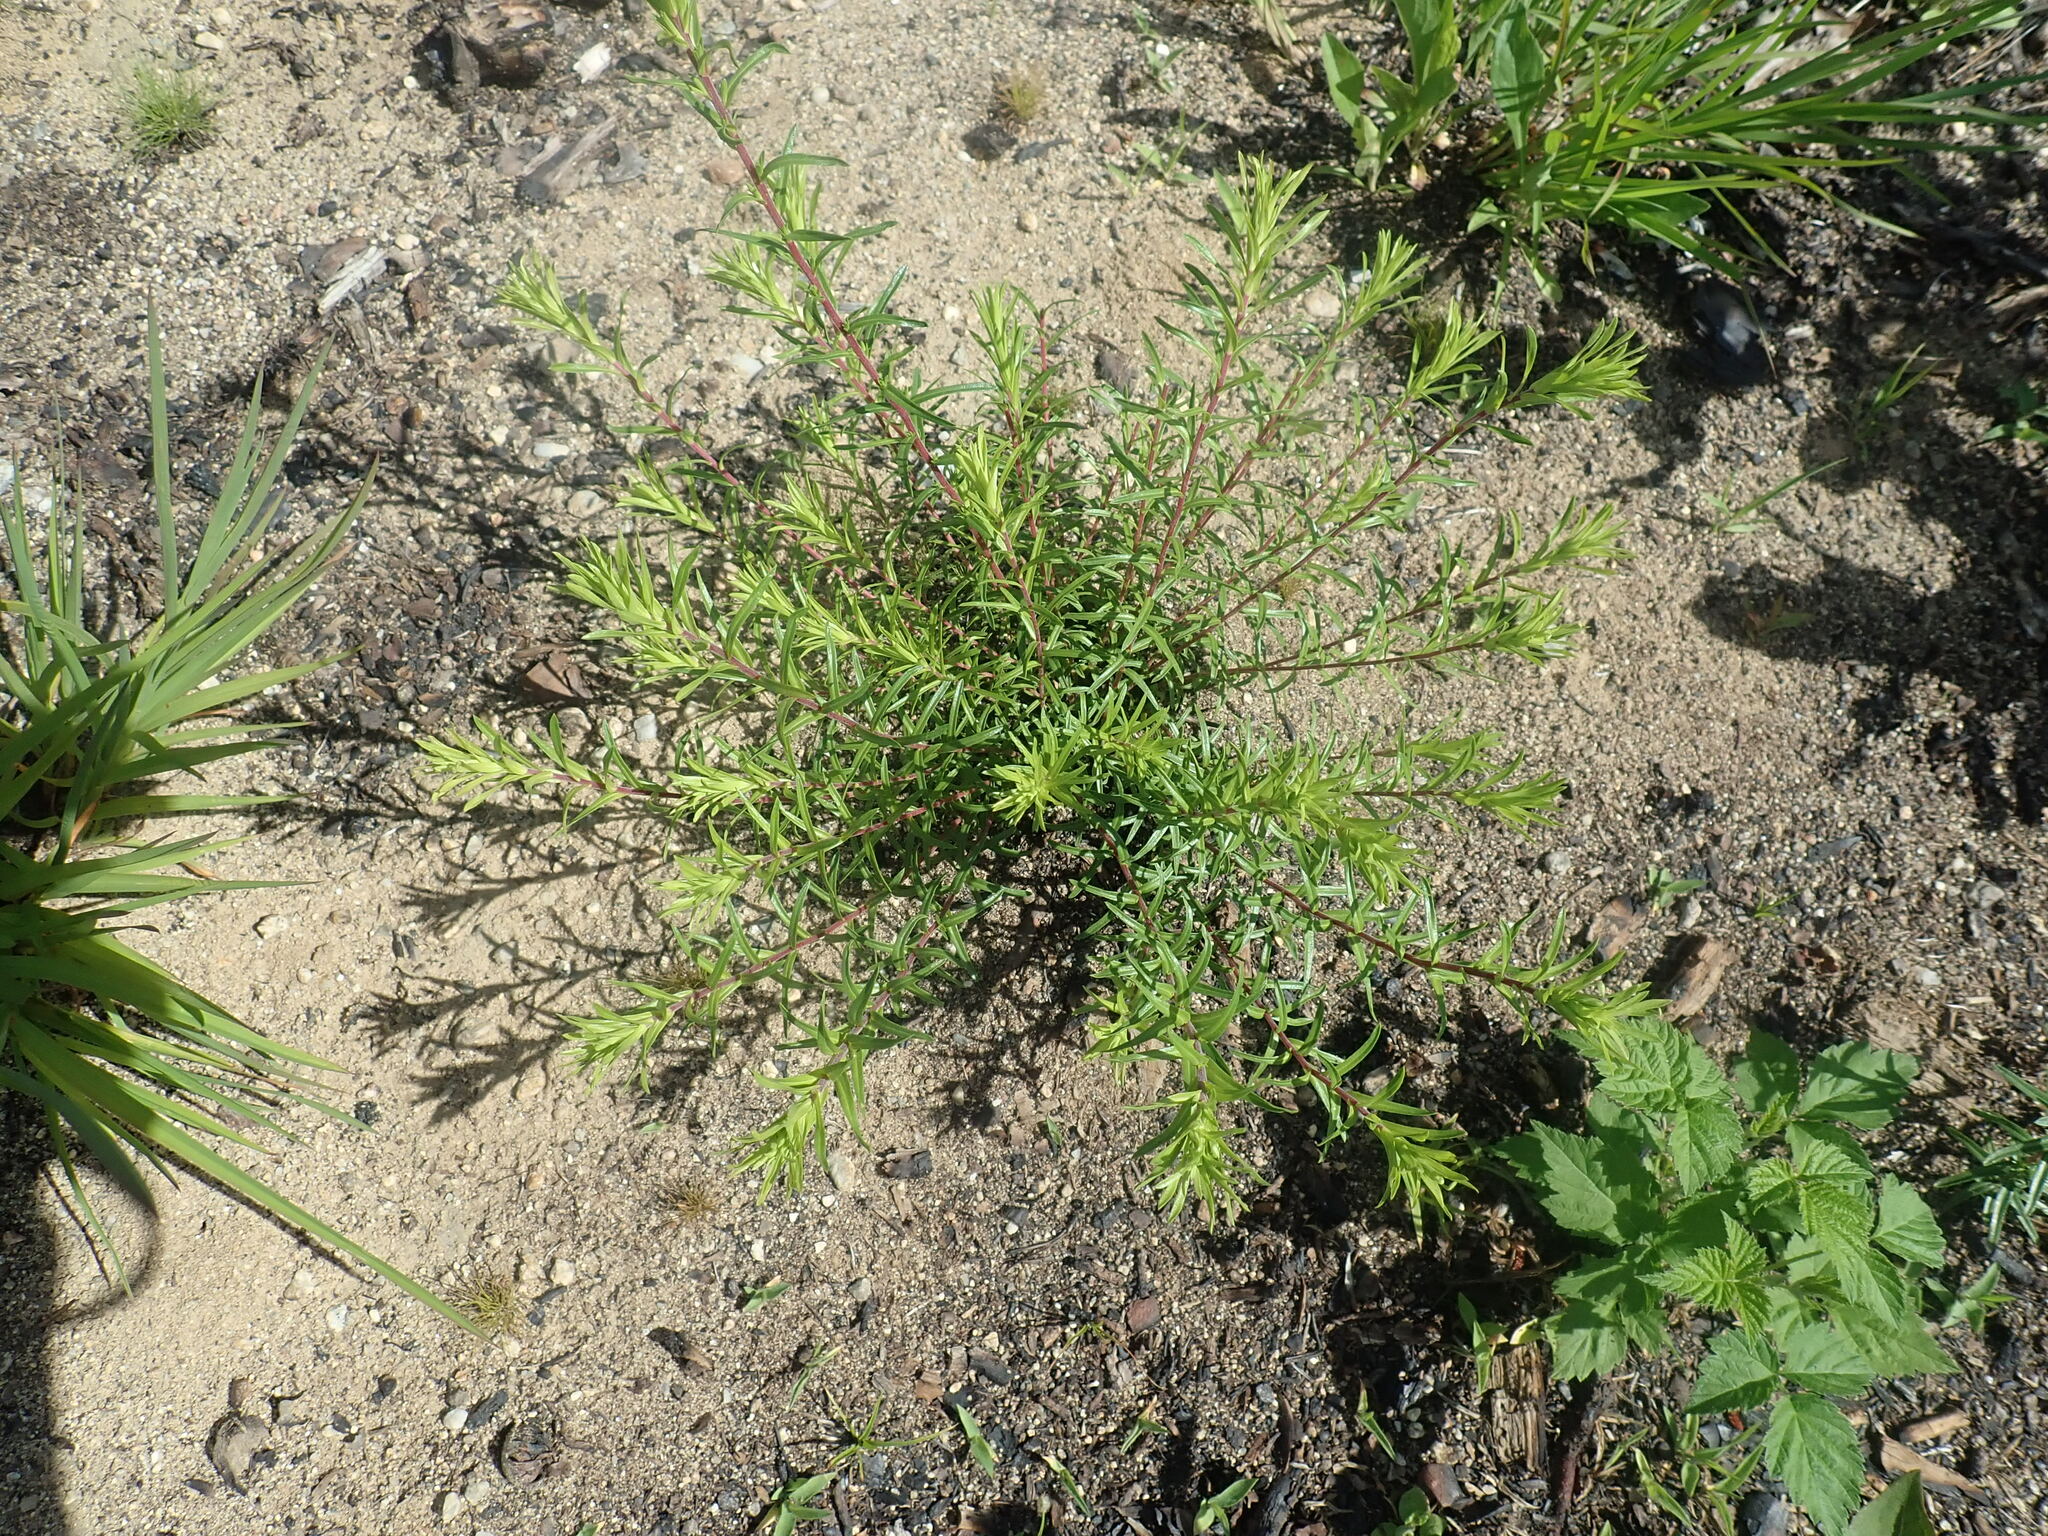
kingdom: Plantae
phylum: Tracheophyta
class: Magnoliopsida
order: Asterales
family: Asteraceae
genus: Ionactis
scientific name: Ionactis linariifolia
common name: Flax-leaf aster
